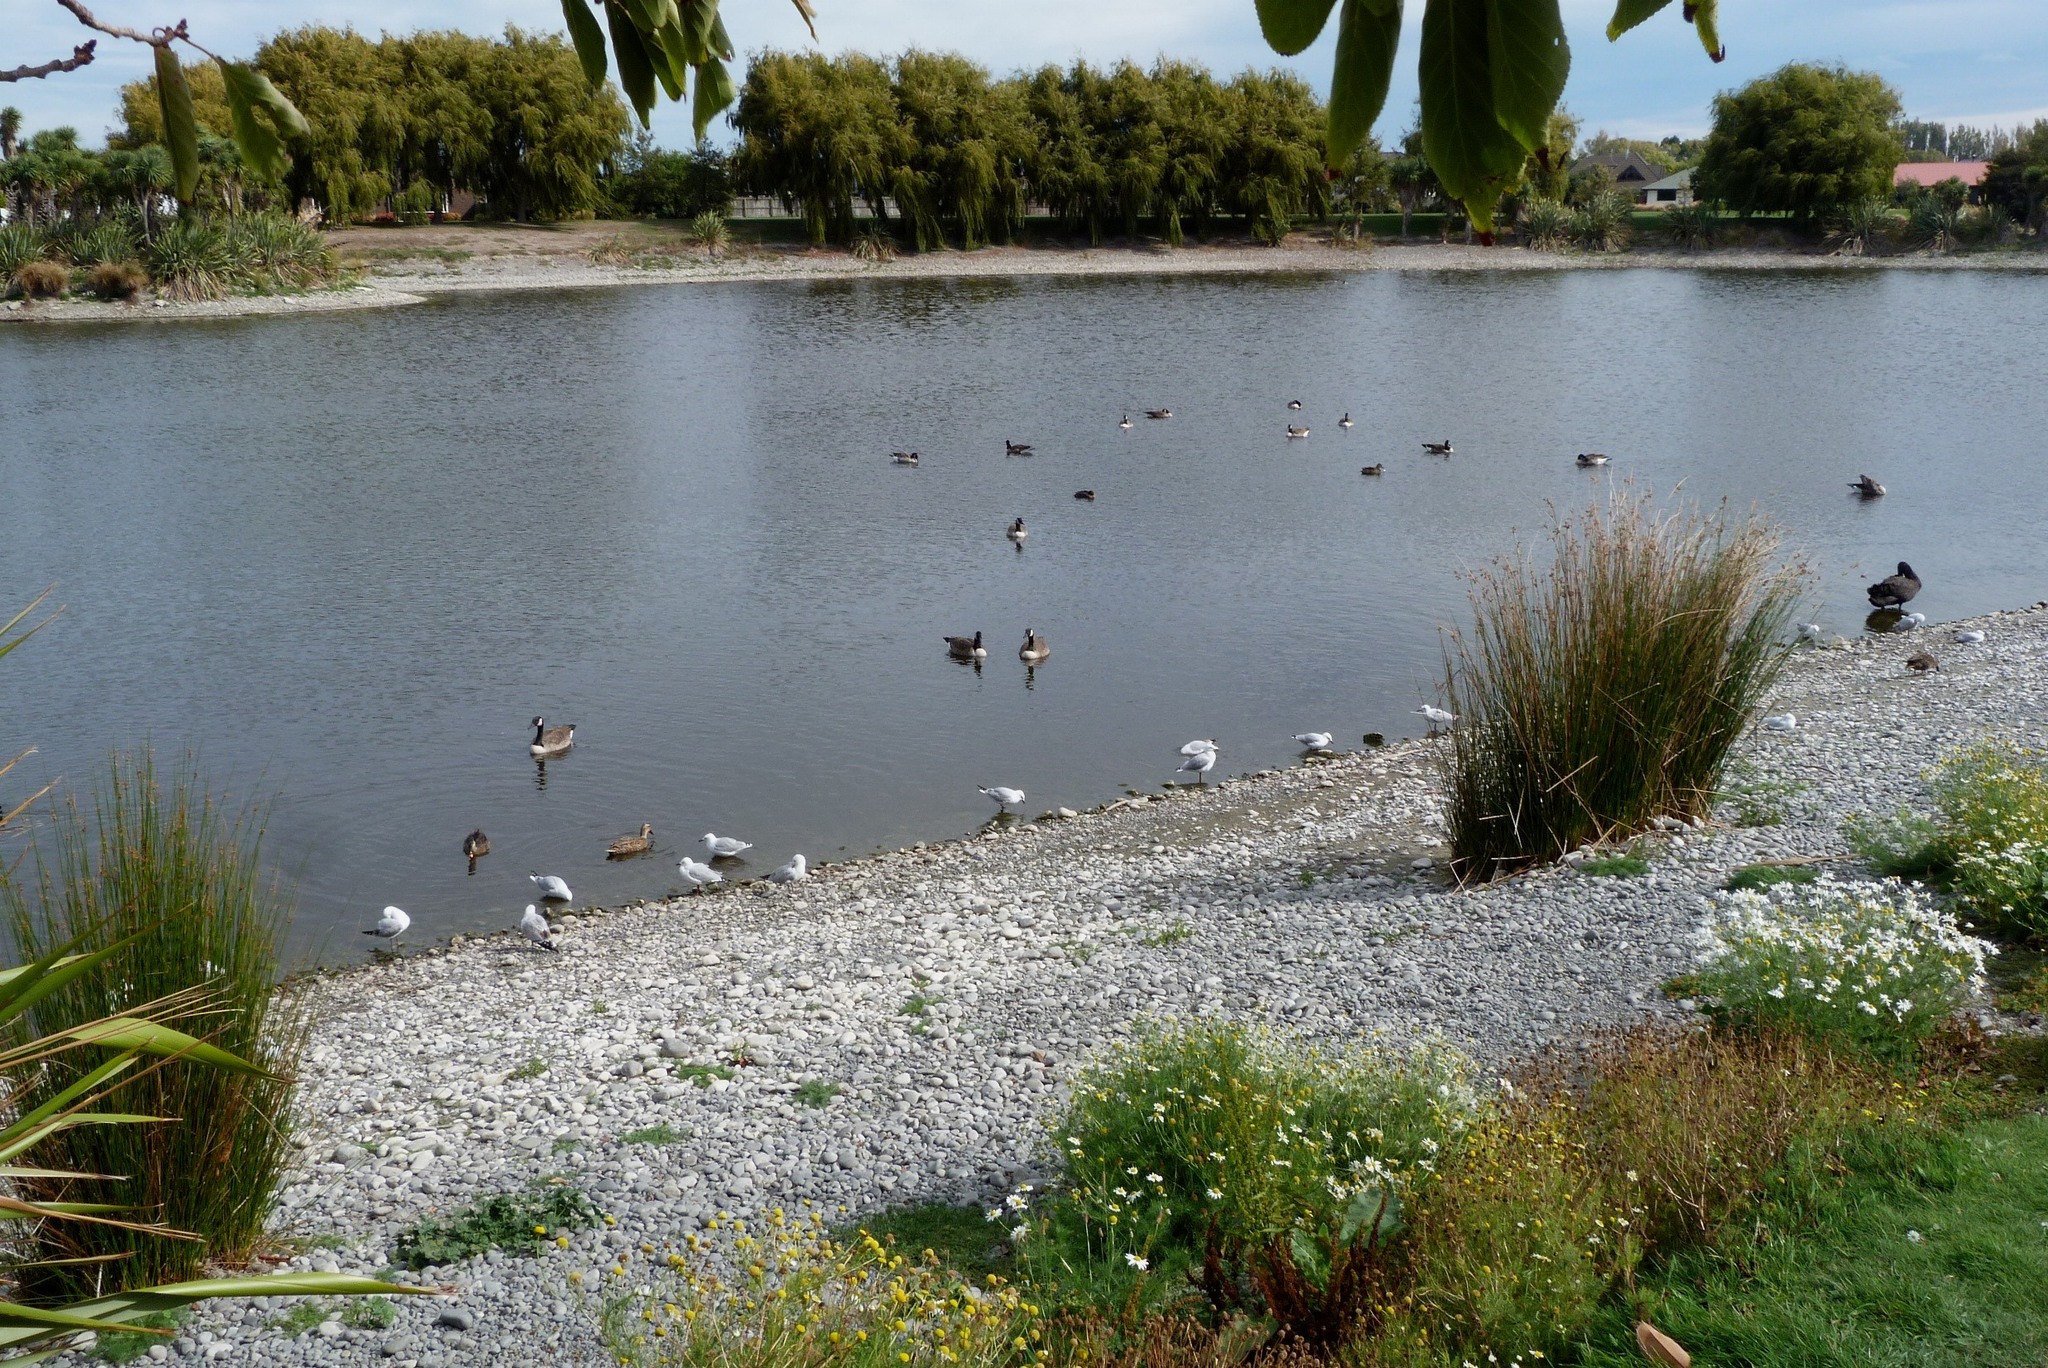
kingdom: Animalia
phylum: Chordata
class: Aves
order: Anseriformes
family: Anatidae
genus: Branta
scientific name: Branta canadensis
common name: Canada goose
